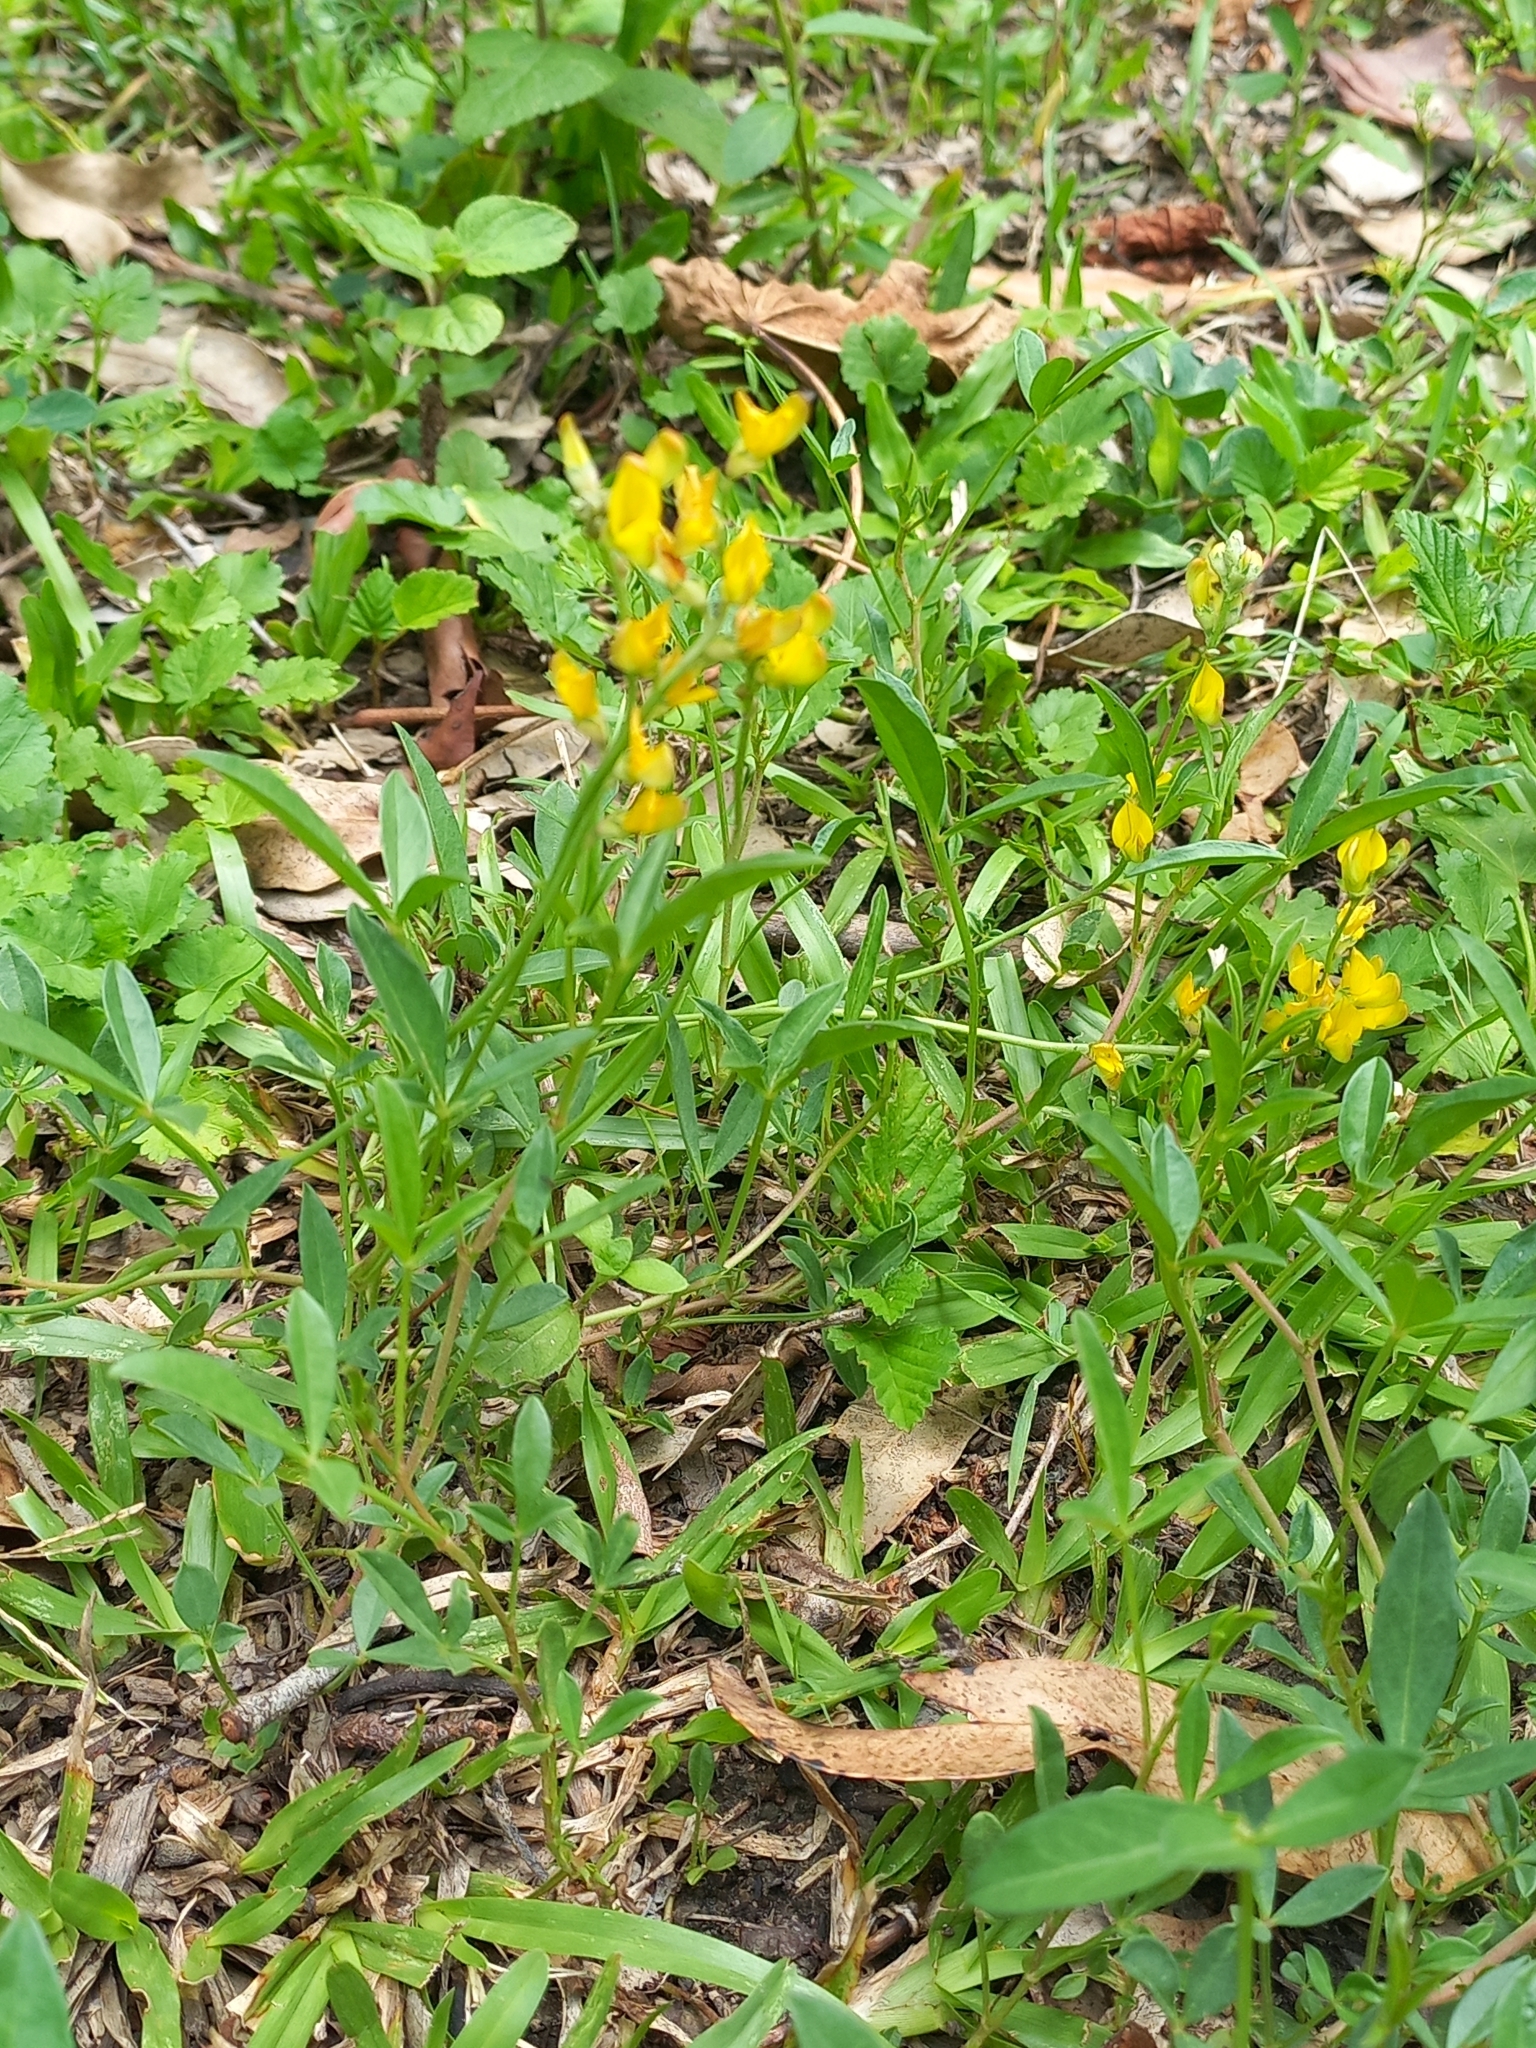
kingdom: Plantae
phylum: Tracheophyta
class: Magnoliopsida
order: Fabales
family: Fabaceae
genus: Listia
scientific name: Listia bainesii
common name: Lotononis
